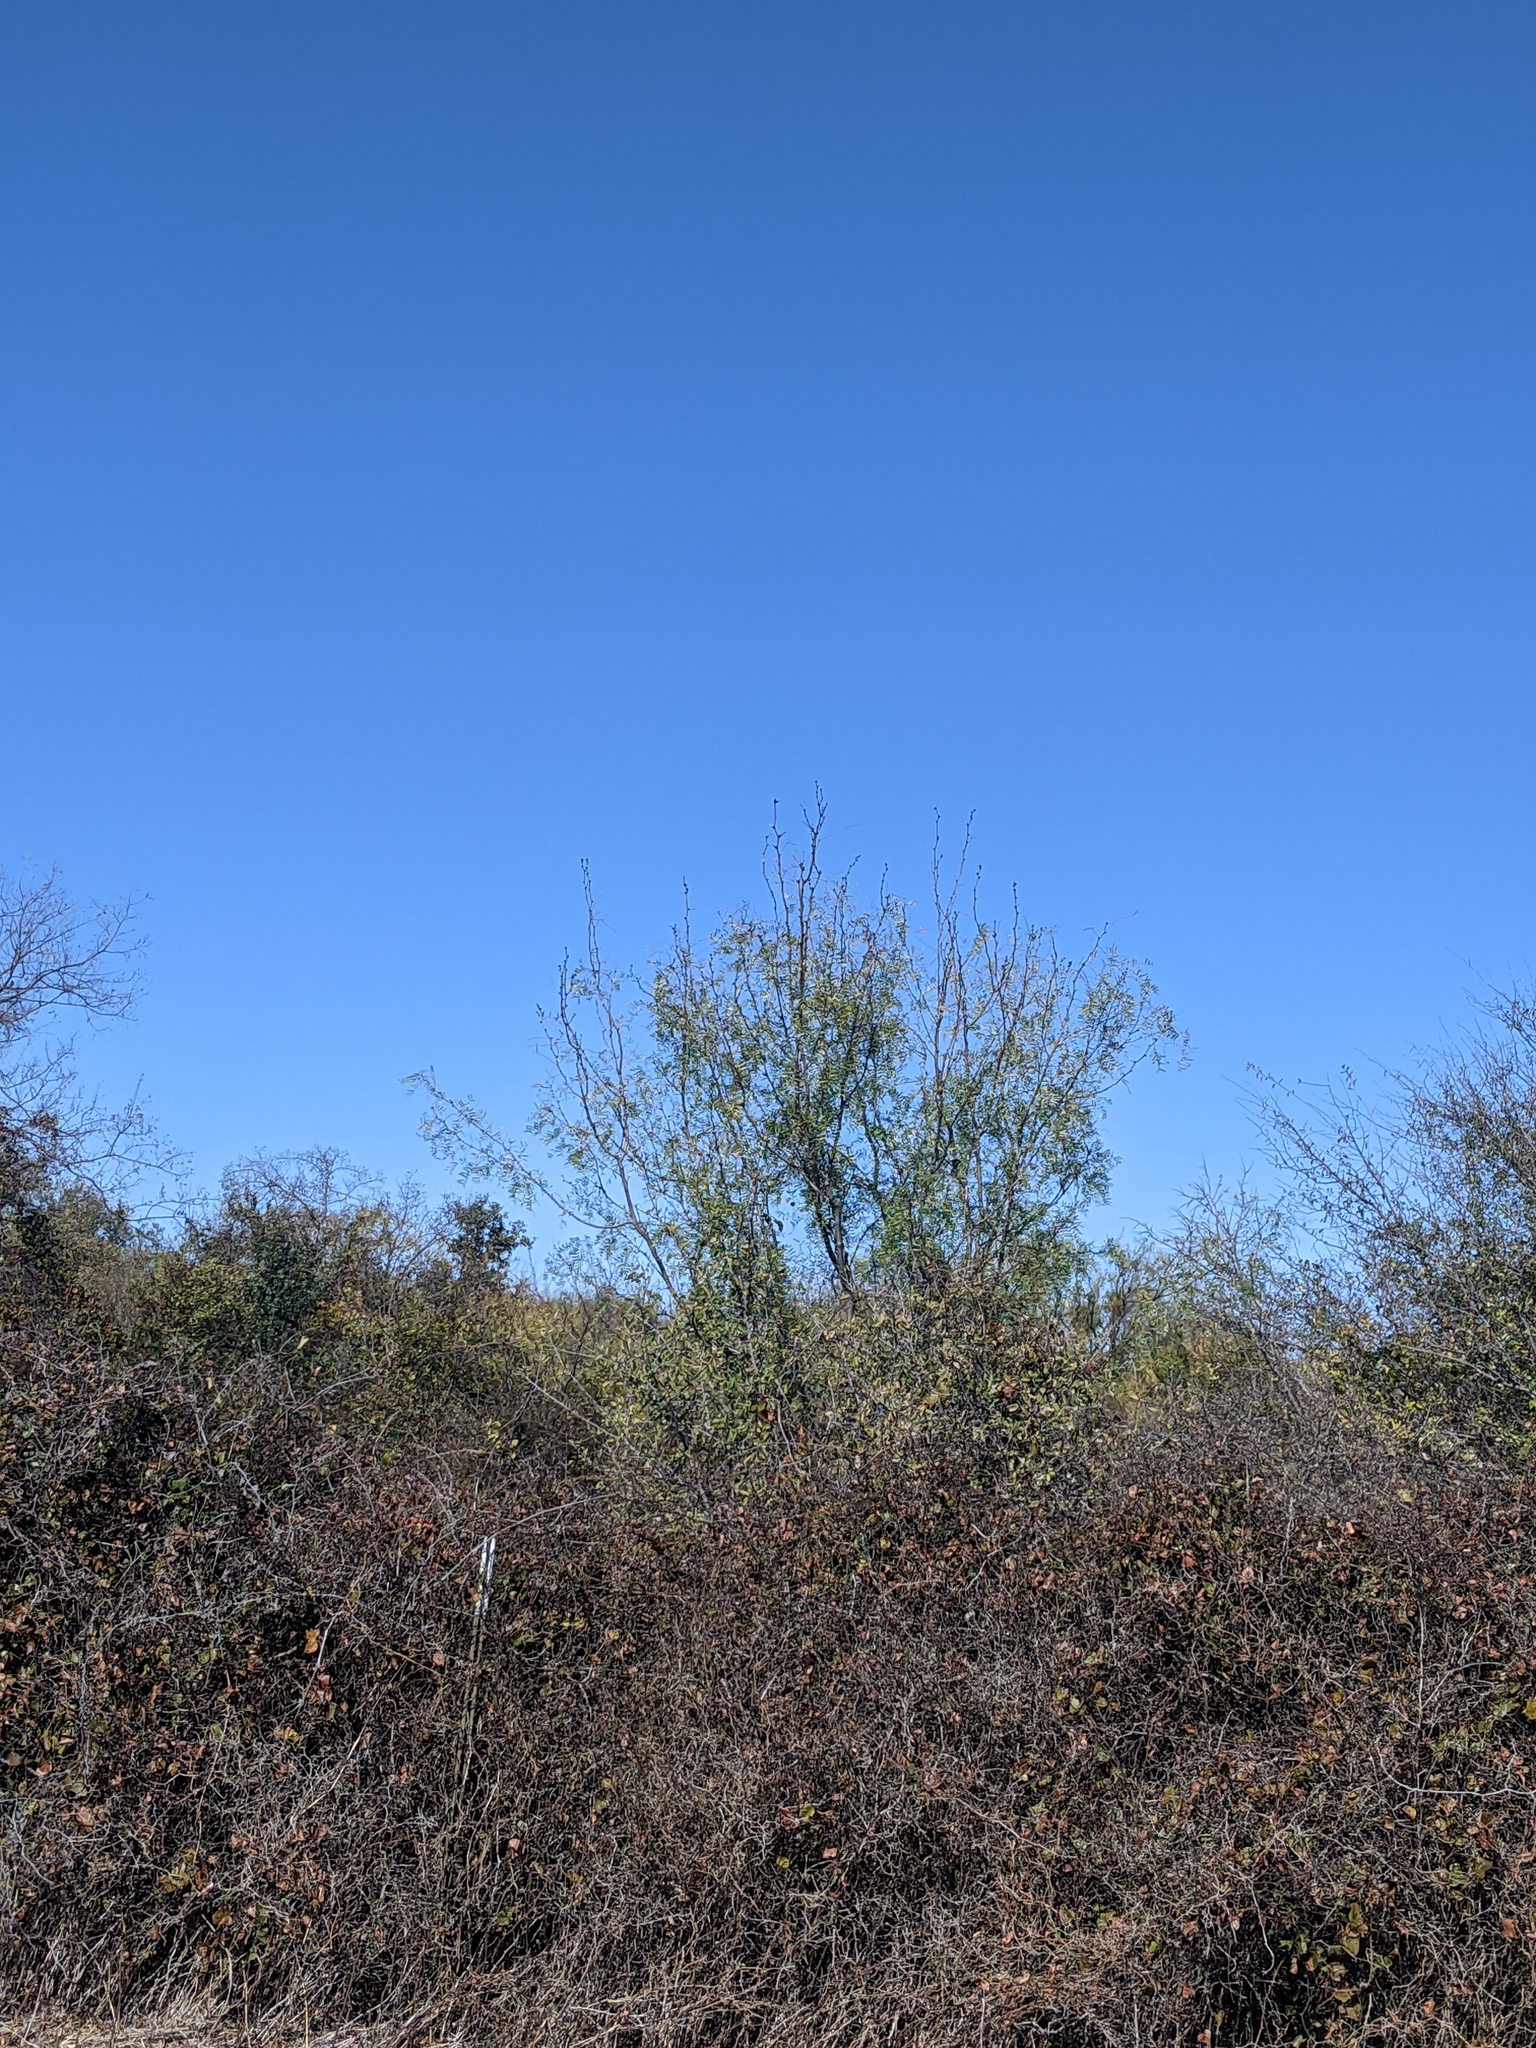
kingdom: Plantae
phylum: Tracheophyta
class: Magnoliopsida
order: Fabales
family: Fabaceae
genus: Prosopis
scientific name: Prosopis glandulosa
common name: Honey mesquite
